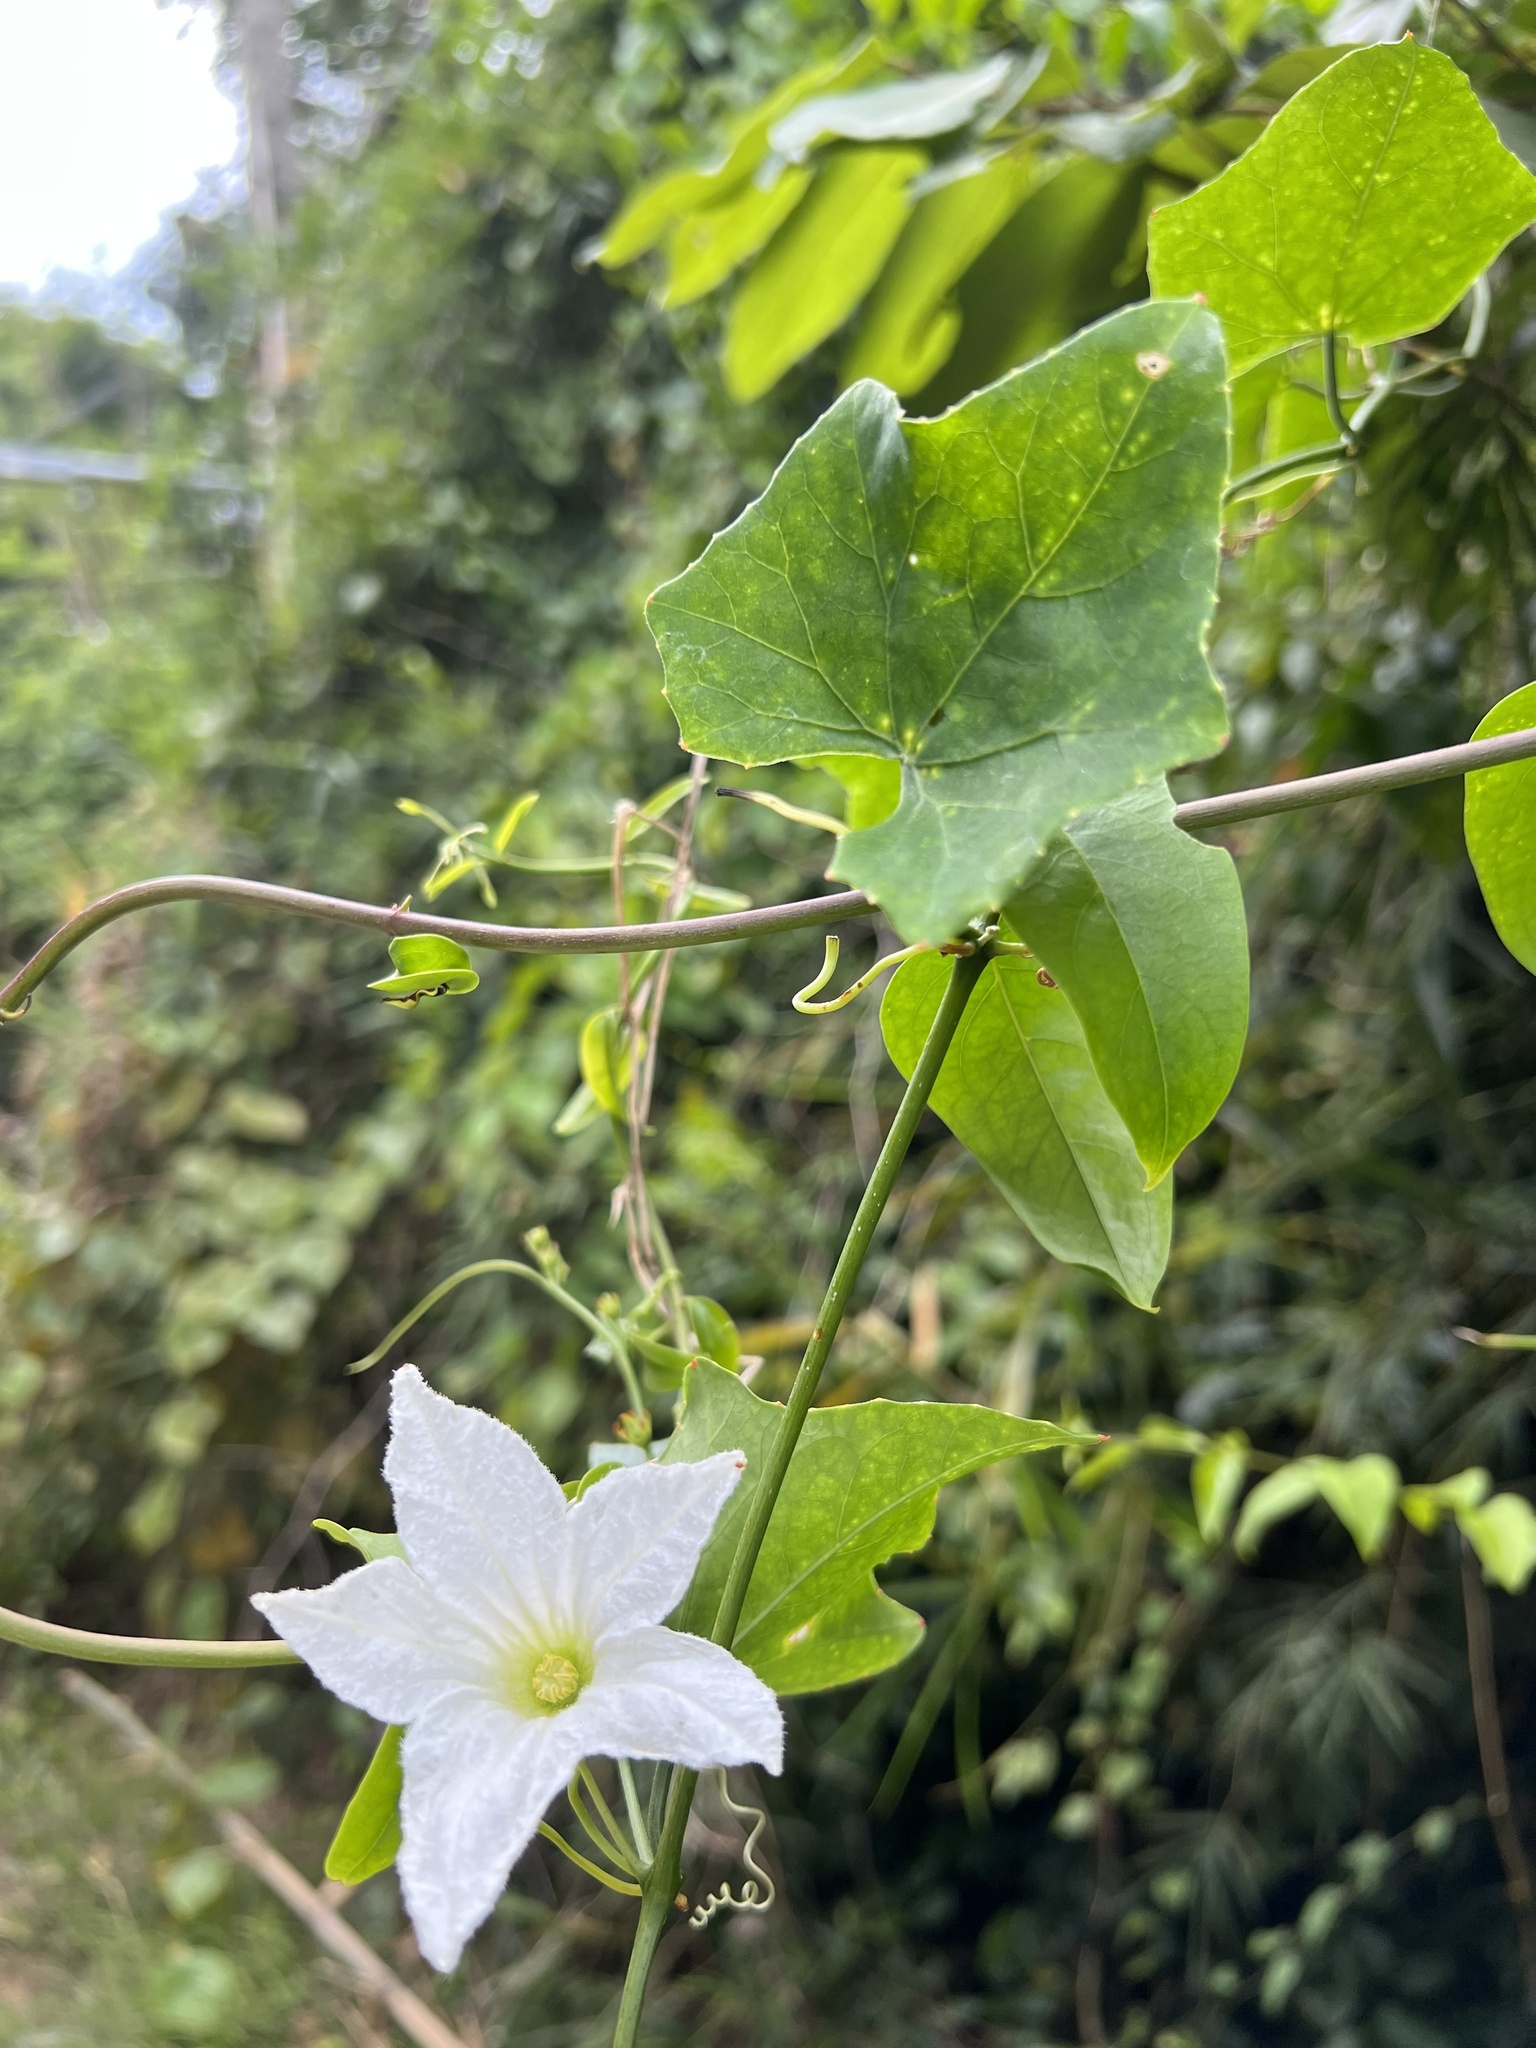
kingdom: Plantae
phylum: Tracheophyta
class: Magnoliopsida
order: Cucurbitales
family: Cucurbitaceae
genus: Coccinia
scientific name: Coccinia grandis
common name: Ivy gourd
